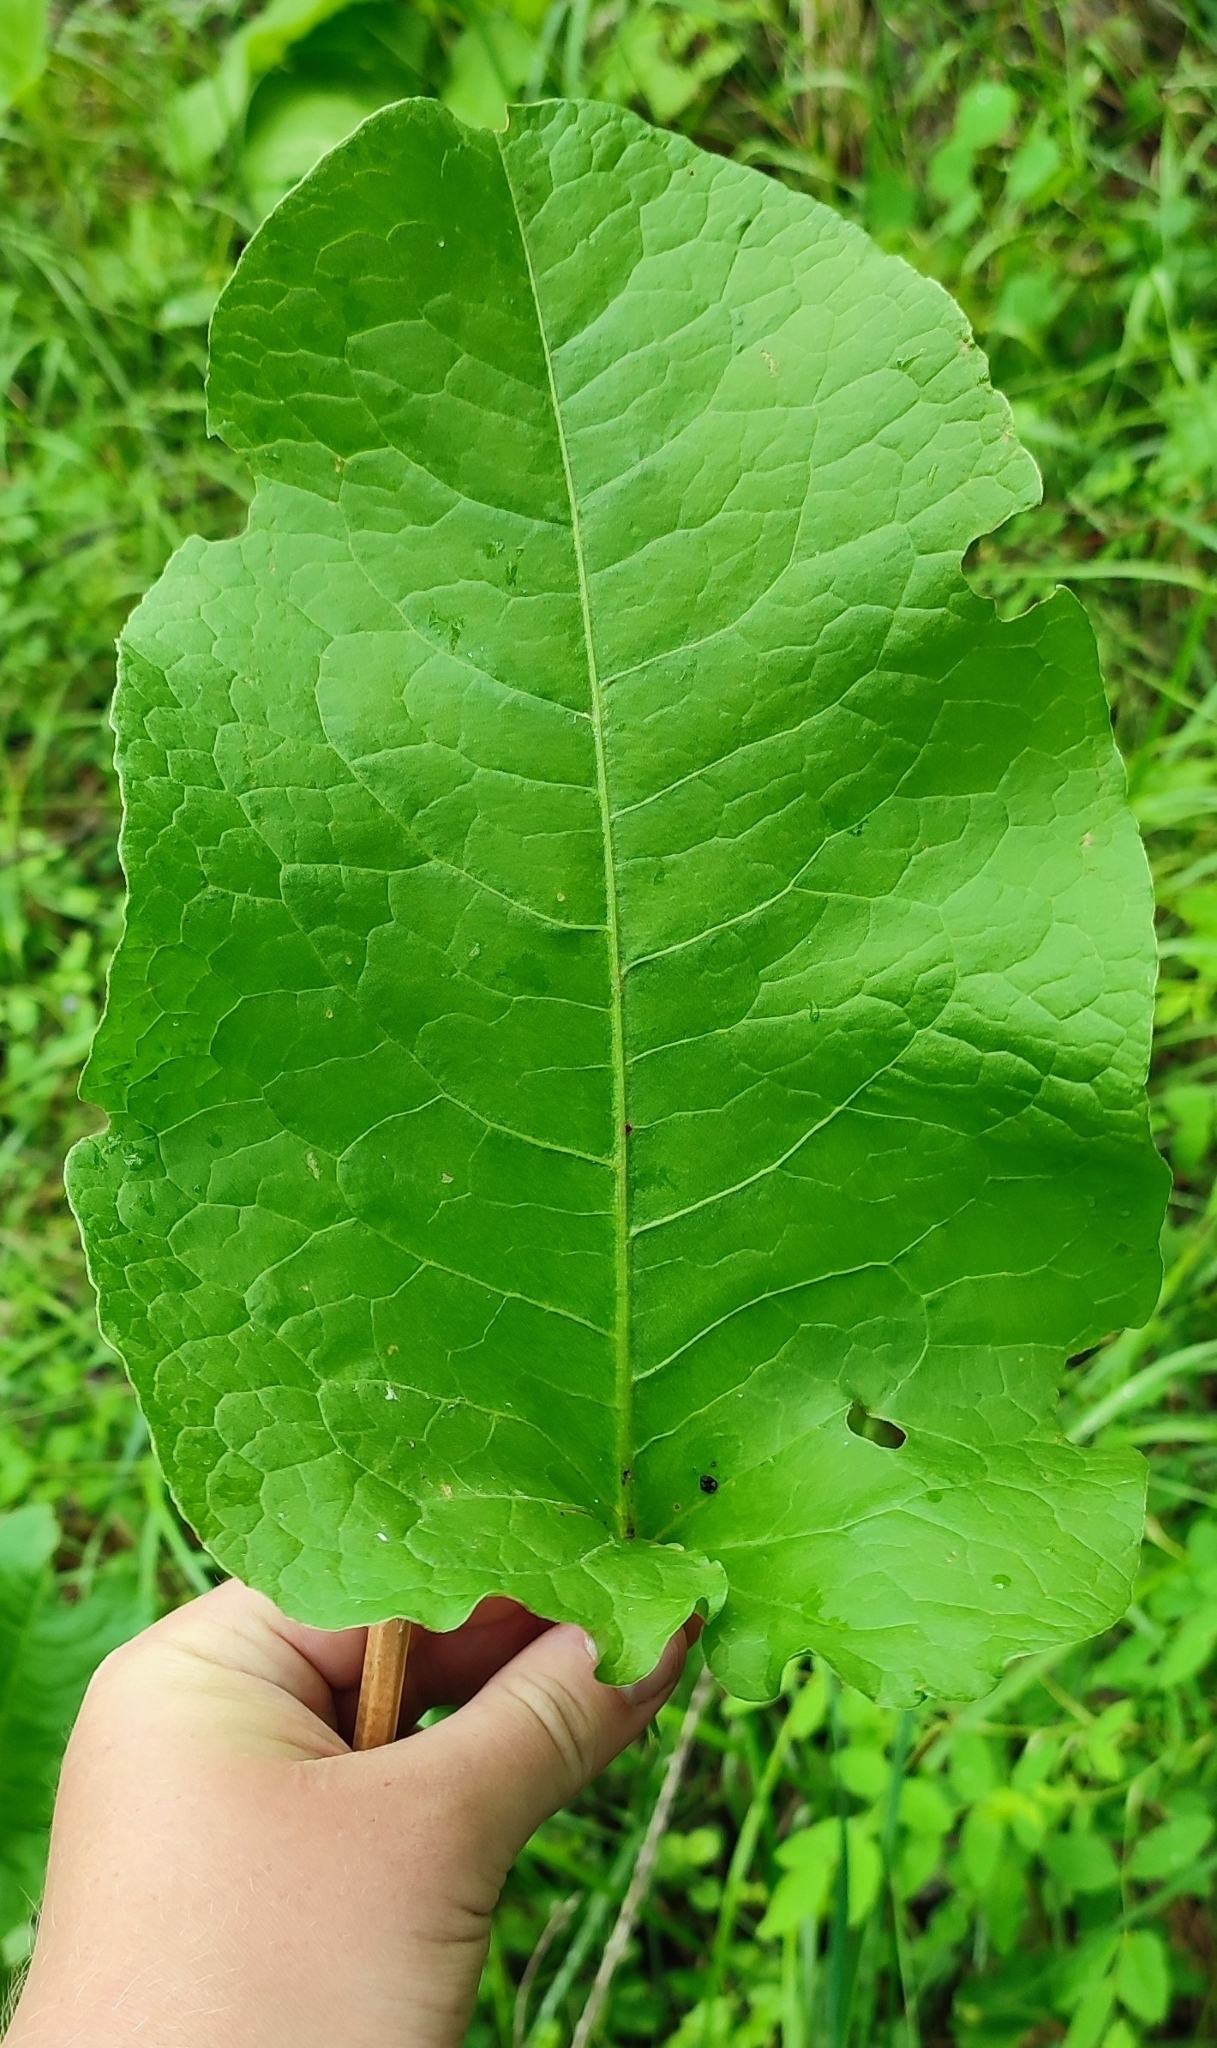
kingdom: Plantae
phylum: Tracheophyta
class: Magnoliopsida
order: Caryophyllales
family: Polygonaceae
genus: Rumex
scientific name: Rumex confertus
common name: Russian dock
